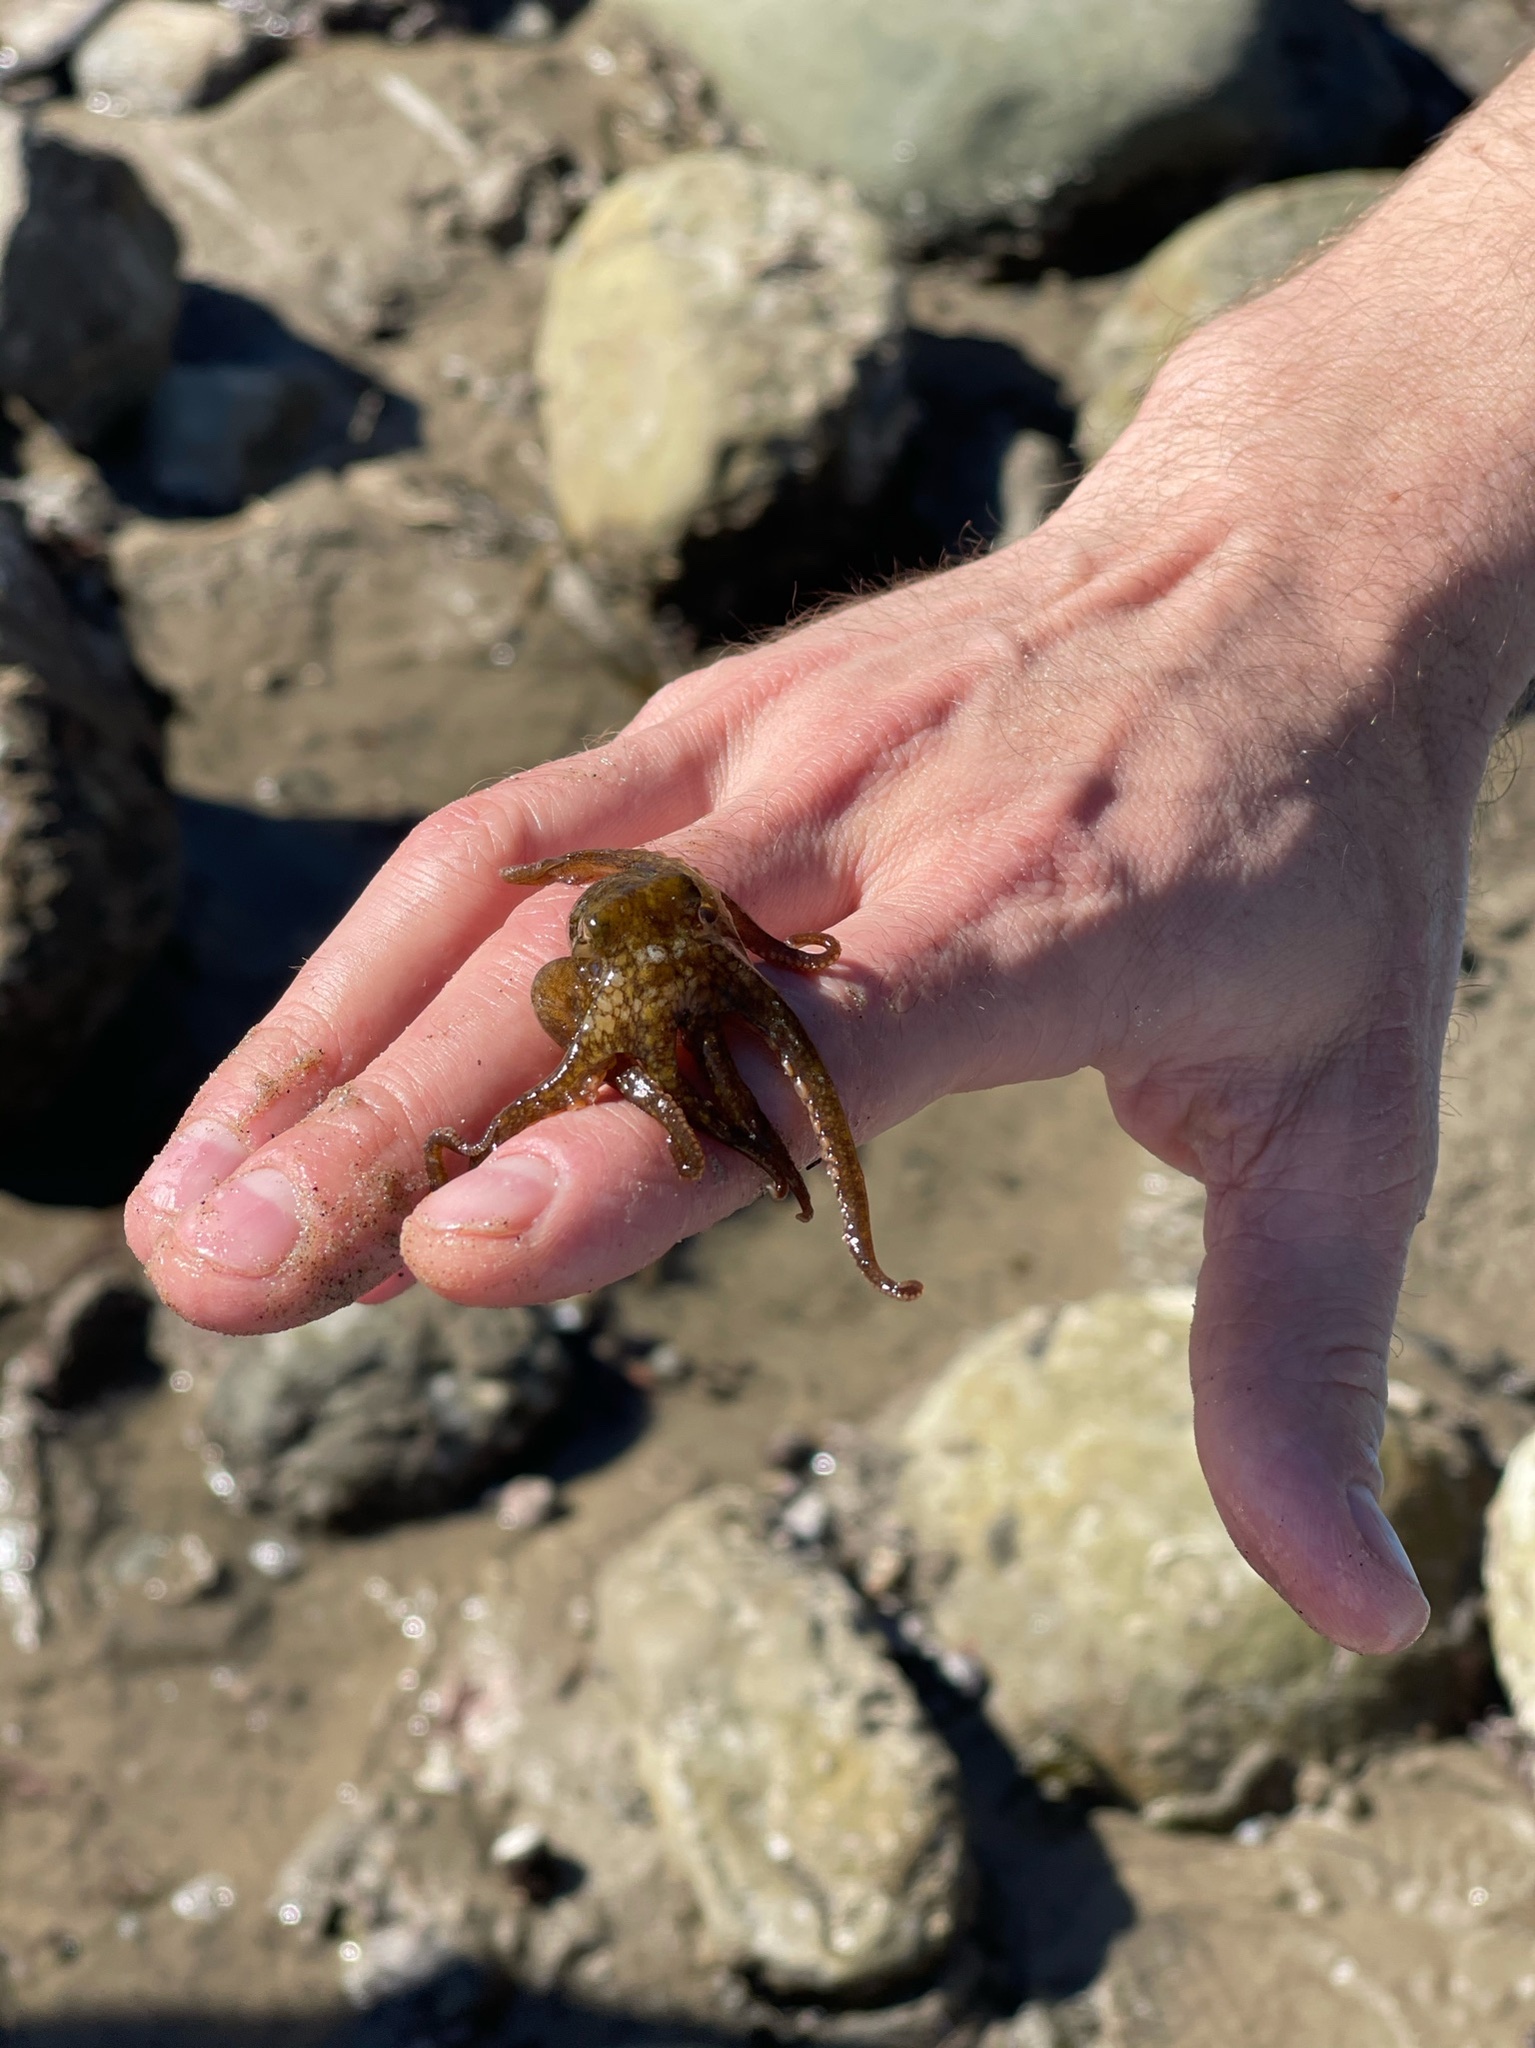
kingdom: Animalia
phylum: Mollusca
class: Cephalopoda
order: Octopoda
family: Octopodidae
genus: Octopus
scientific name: Octopus bimaculoides
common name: California two-spot octopus
